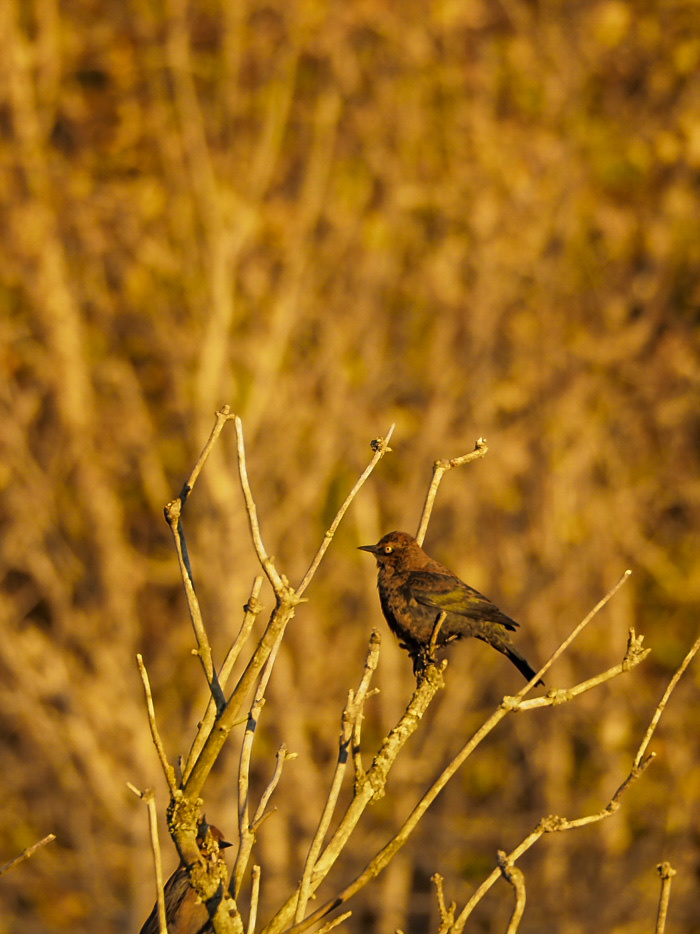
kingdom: Animalia
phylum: Chordata
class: Aves
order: Passeriformes
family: Icteridae
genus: Euphagus
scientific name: Euphagus carolinus
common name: Rusty blackbird
